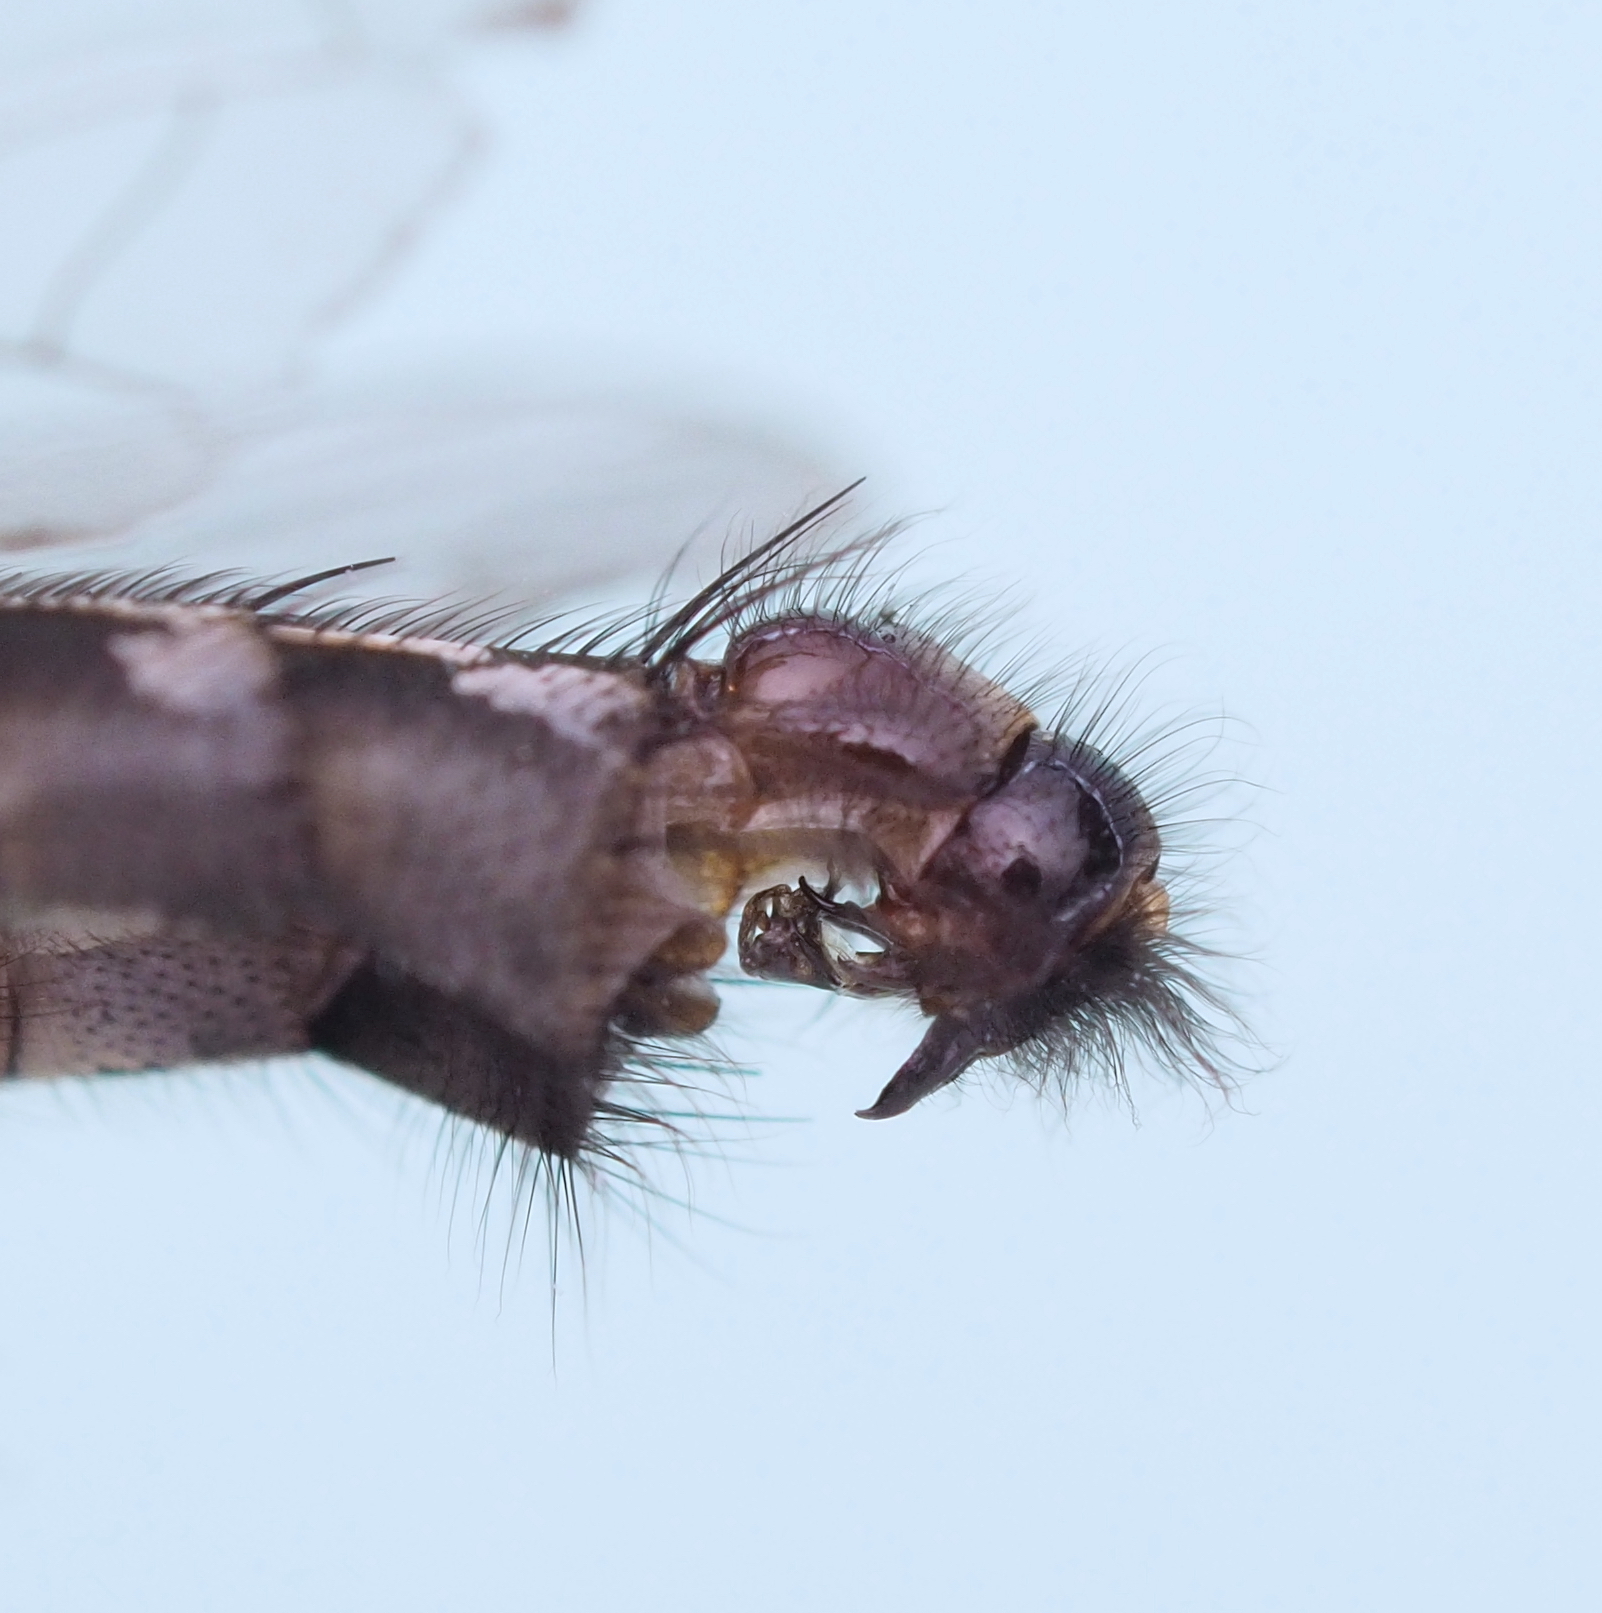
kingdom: Animalia
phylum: Arthropoda
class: Insecta
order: Diptera
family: Sarcophagidae
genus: Sarcophaga
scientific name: Sarcophaga albiceps
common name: Flesh fly
